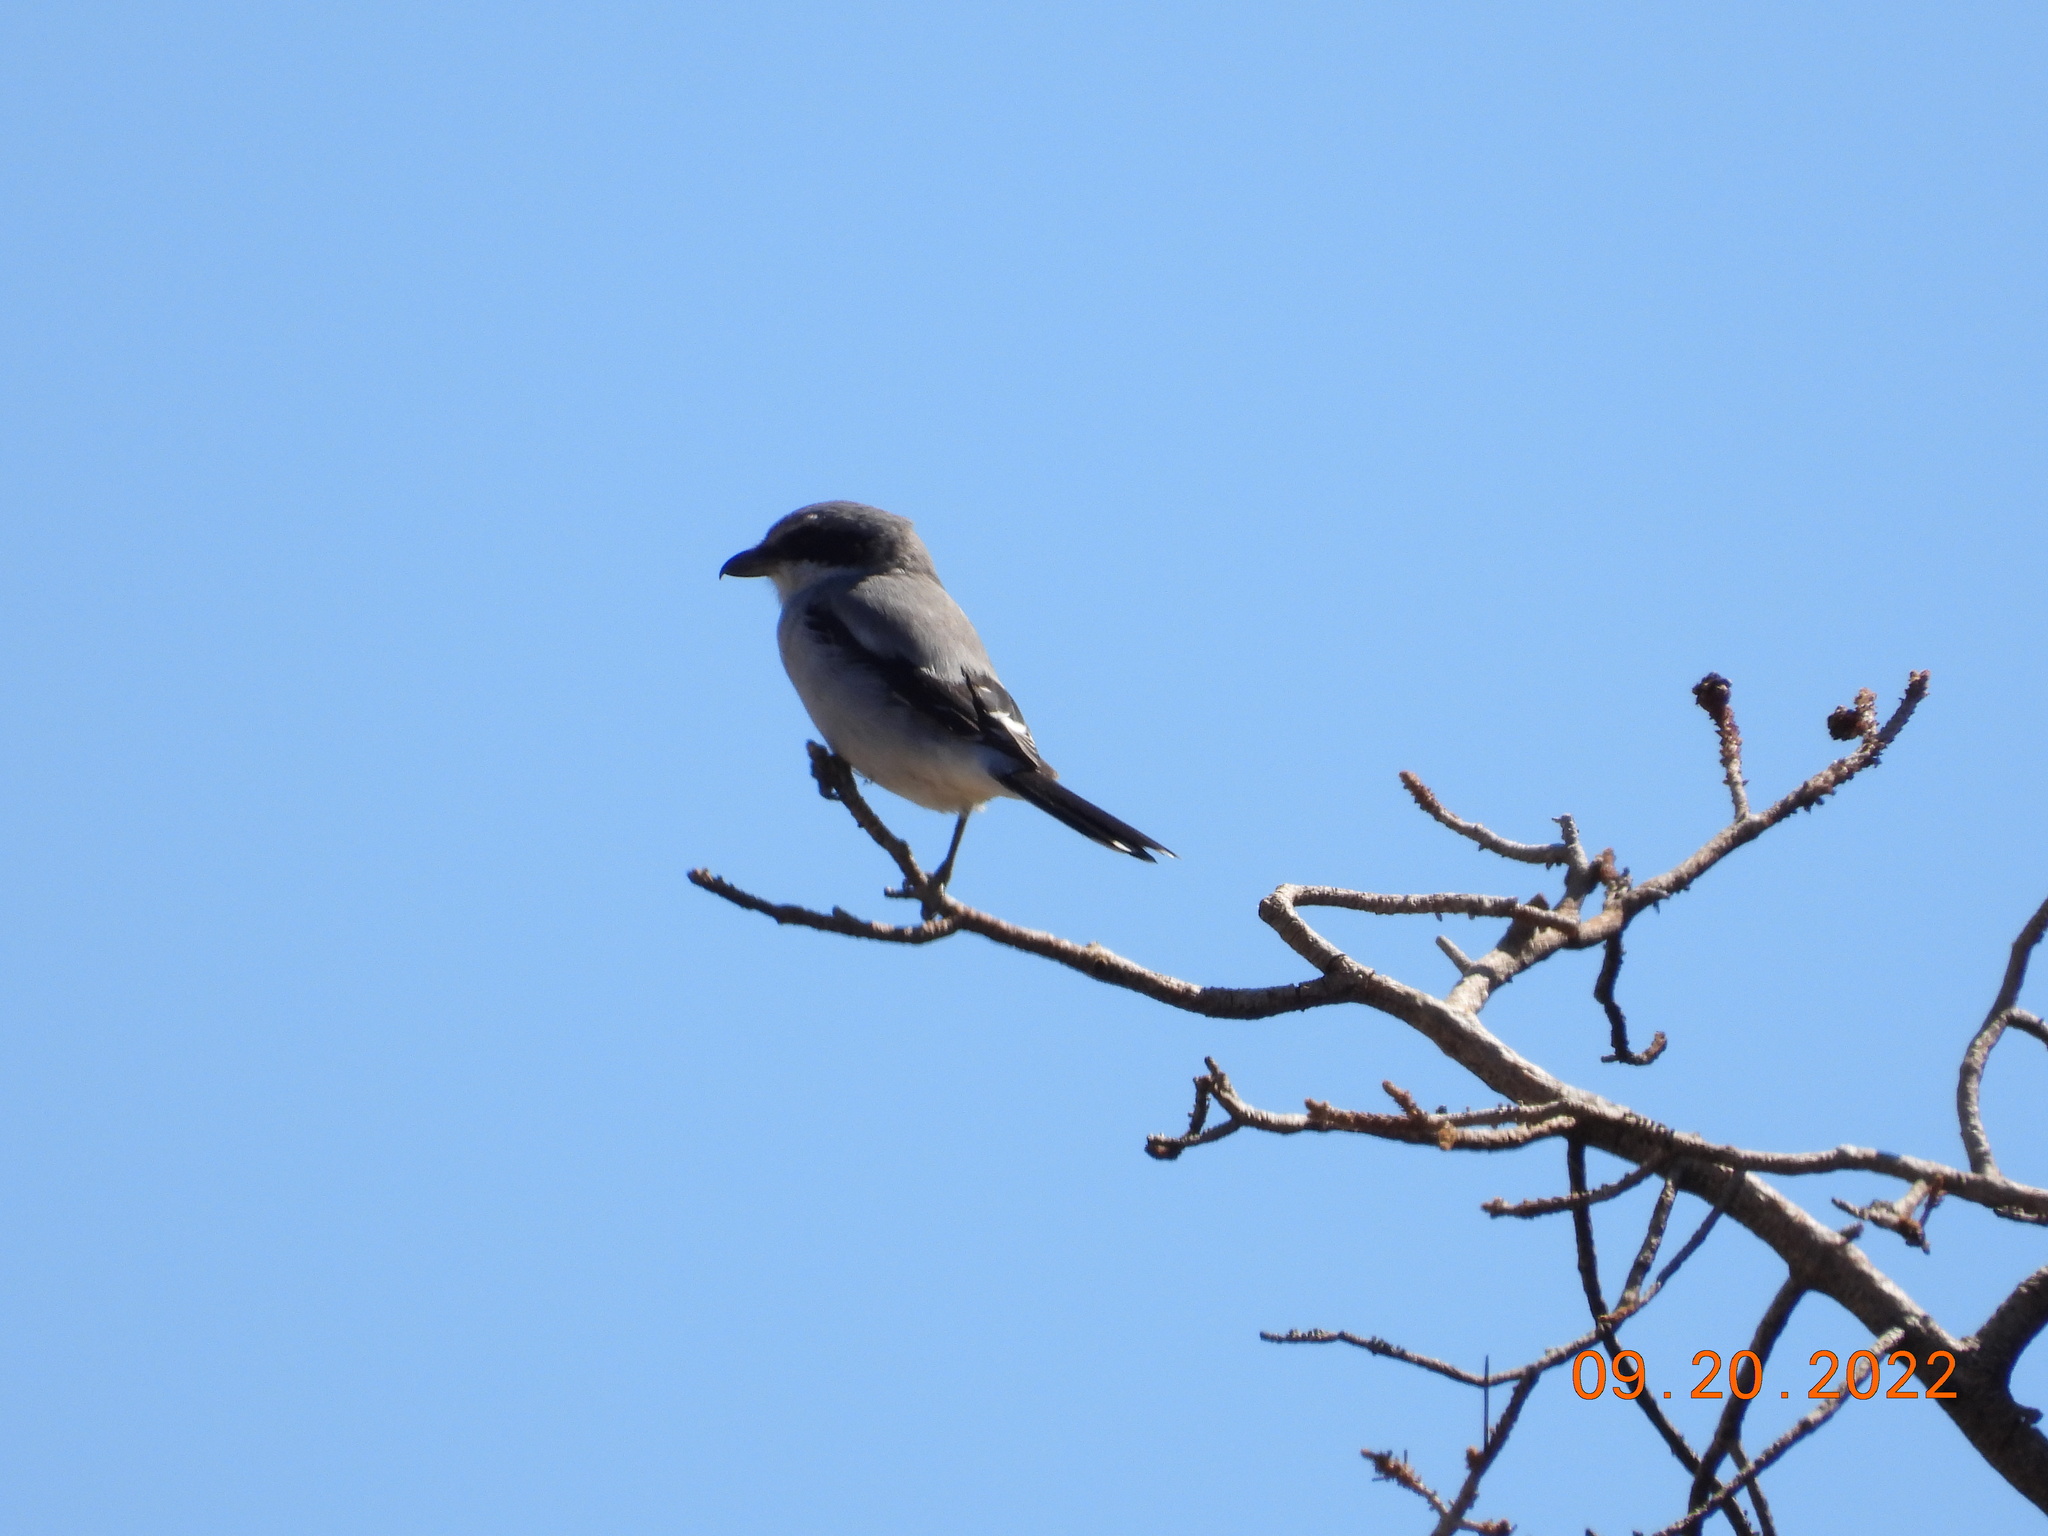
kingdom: Animalia
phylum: Chordata
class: Aves
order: Passeriformes
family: Laniidae
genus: Lanius
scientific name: Lanius ludovicianus
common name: Loggerhead shrike
